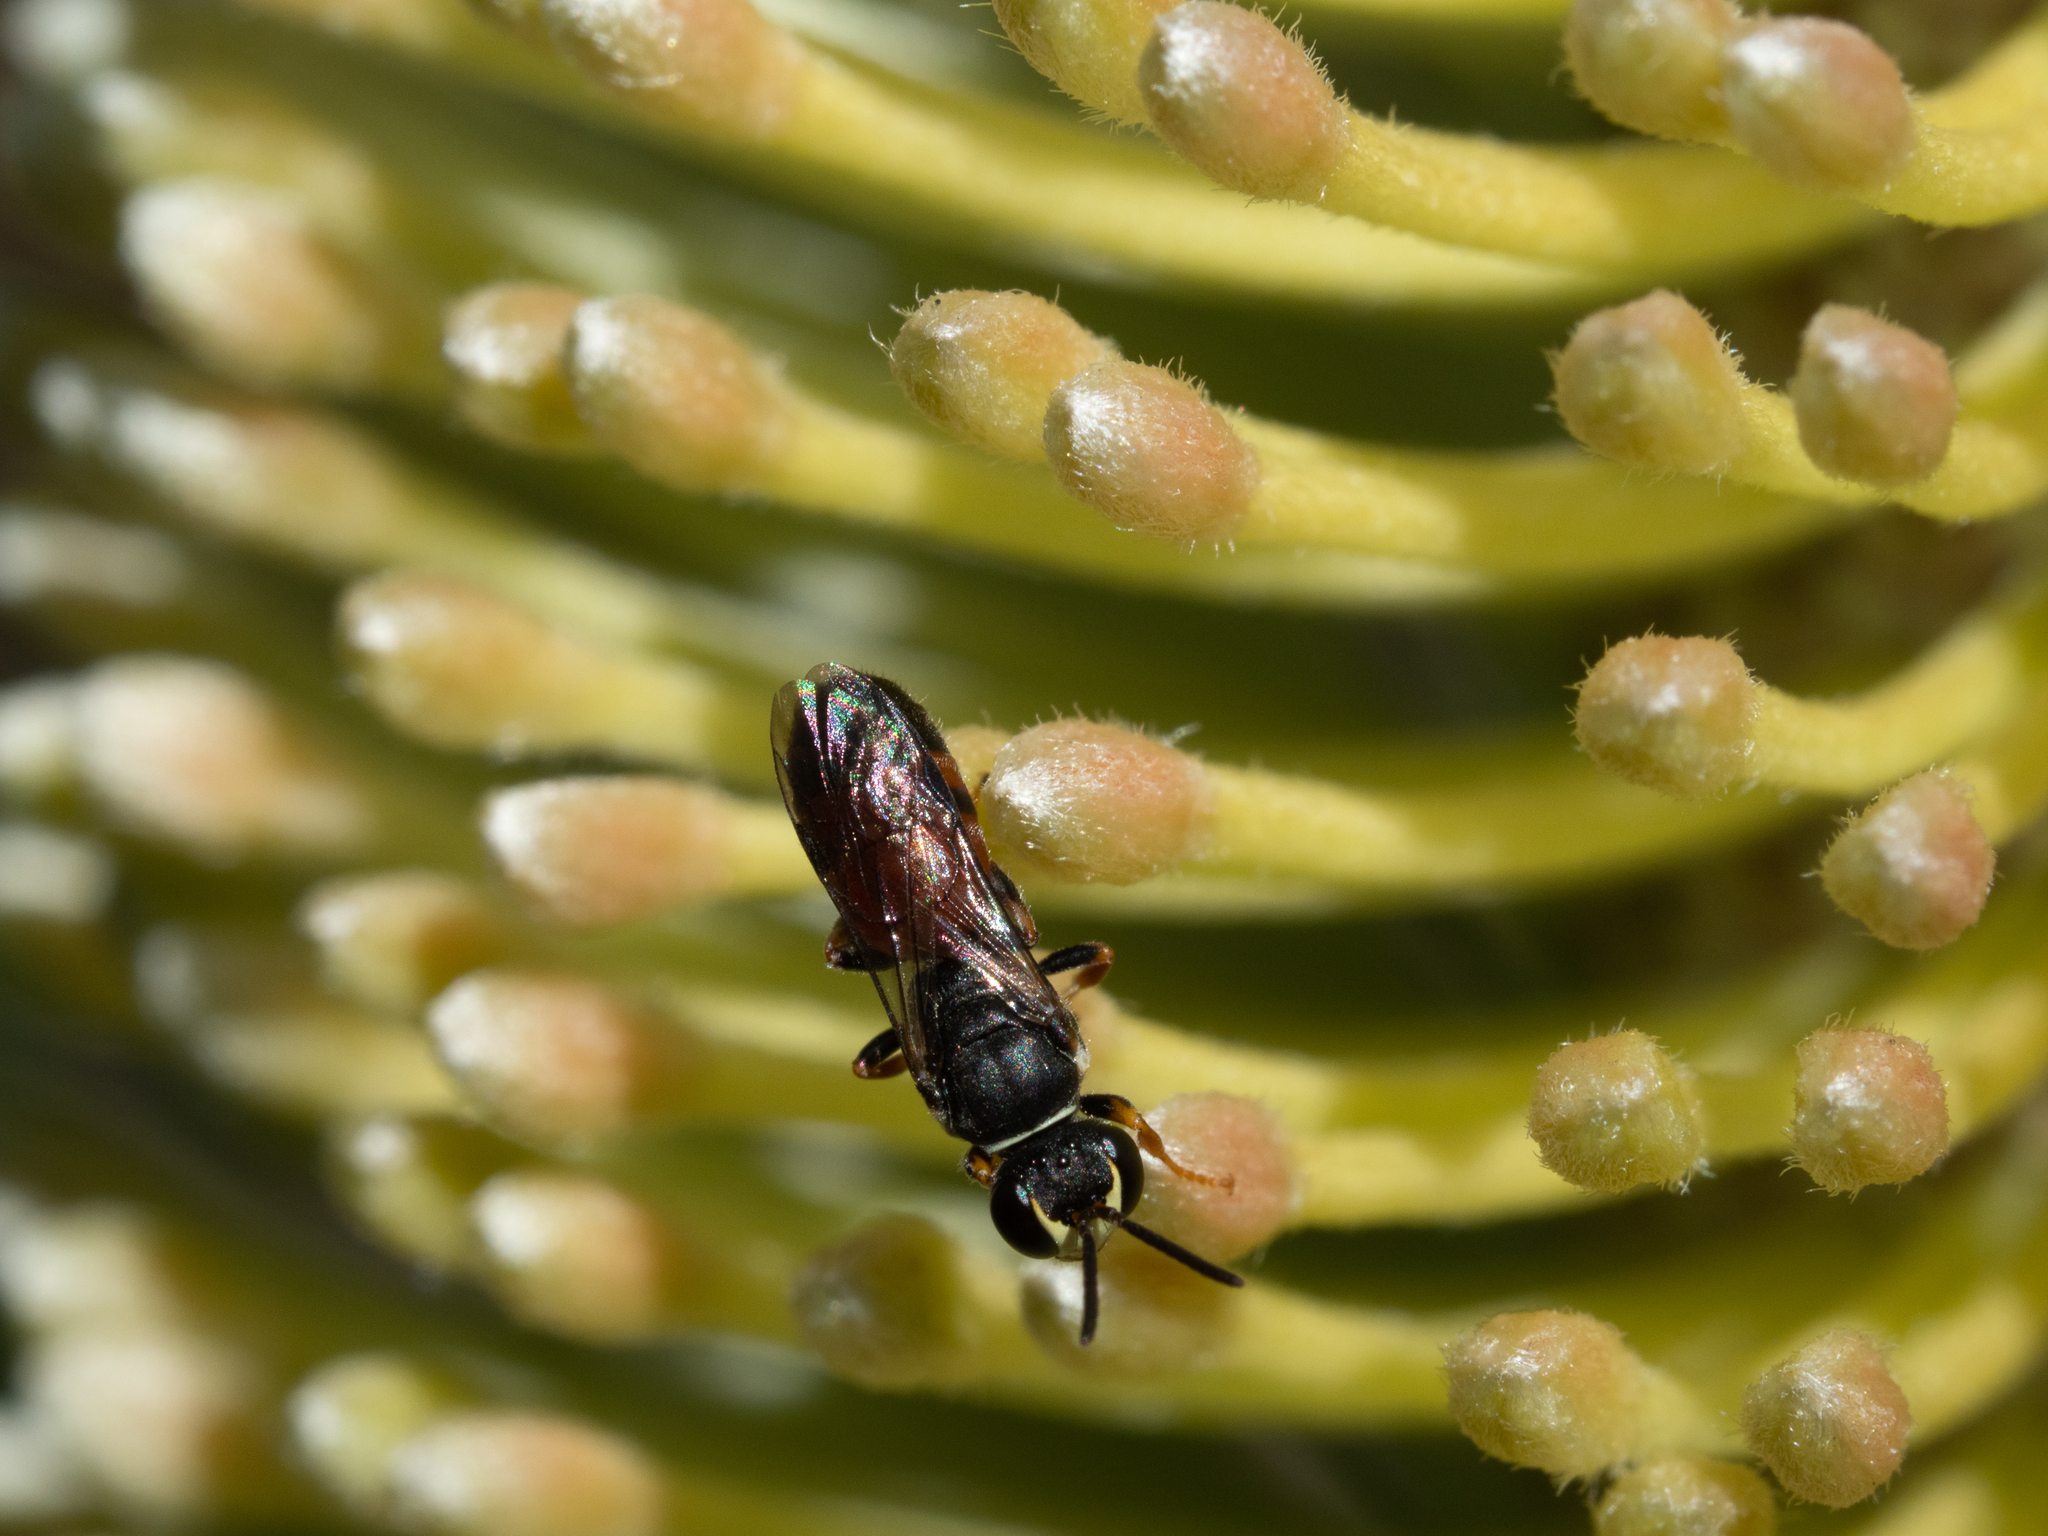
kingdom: Animalia
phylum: Arthropoda
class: Insecta
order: Hymenoptera
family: Colletidae
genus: Hylaeus
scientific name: Hylaeus littleri
